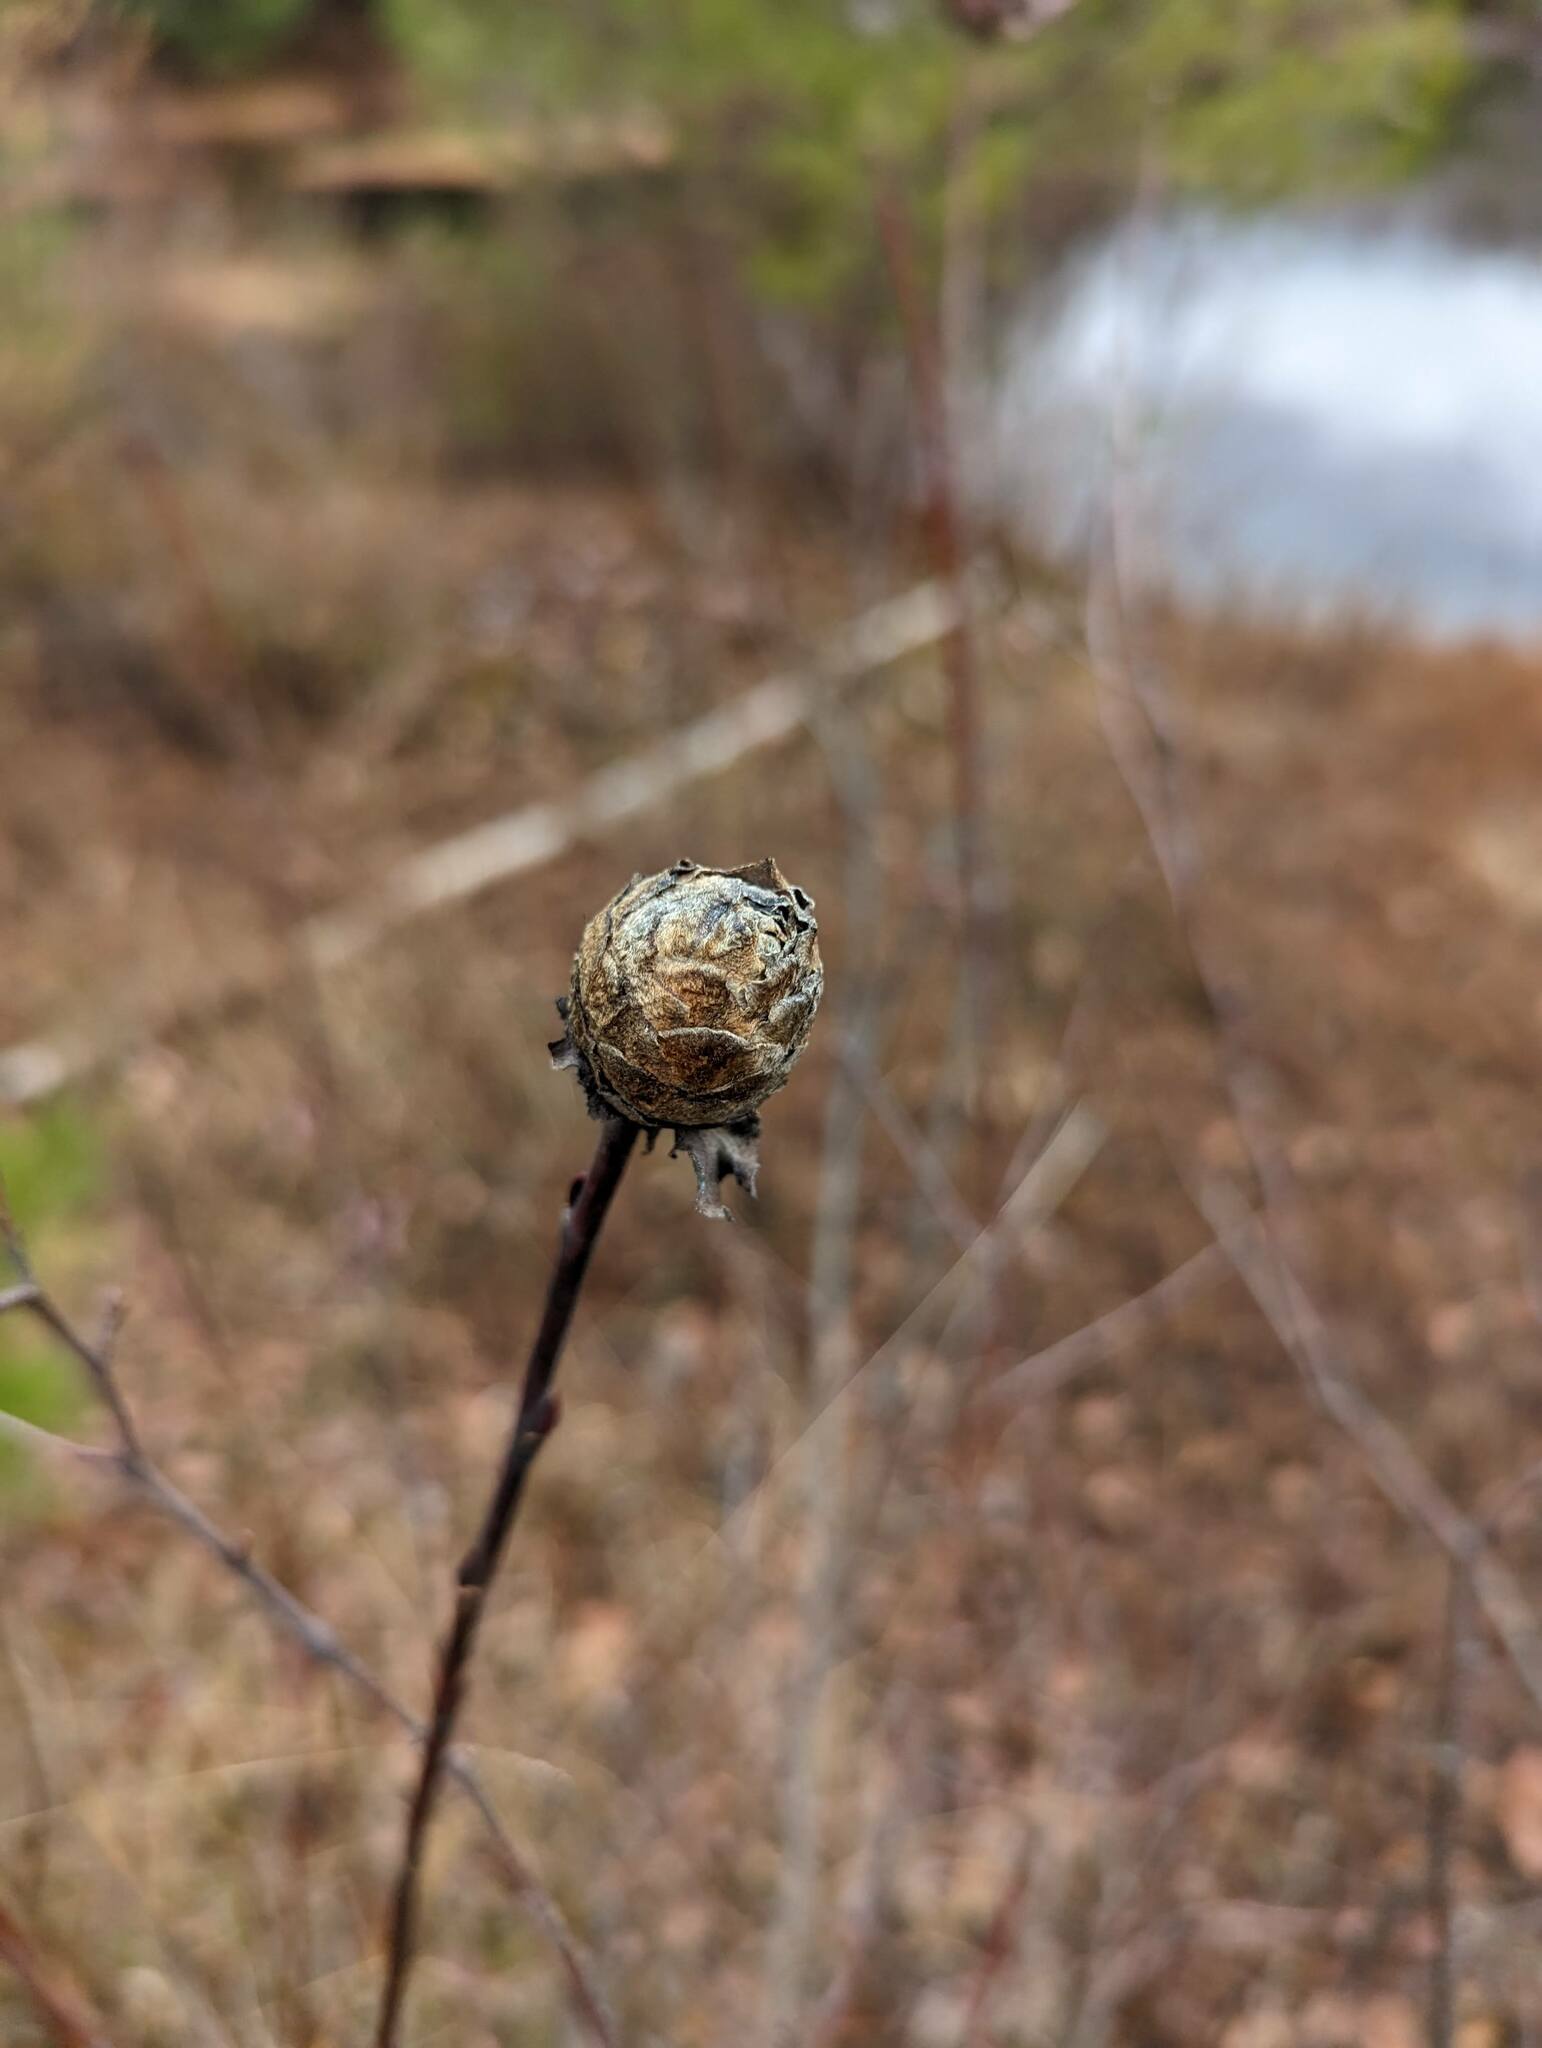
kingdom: Animalia
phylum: Arthropoda
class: Insecta
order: Diptera
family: Cecidomyiidae
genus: Rabdophaga
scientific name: Rabdophaga strobiloides
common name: Willow pinecone gall midge
